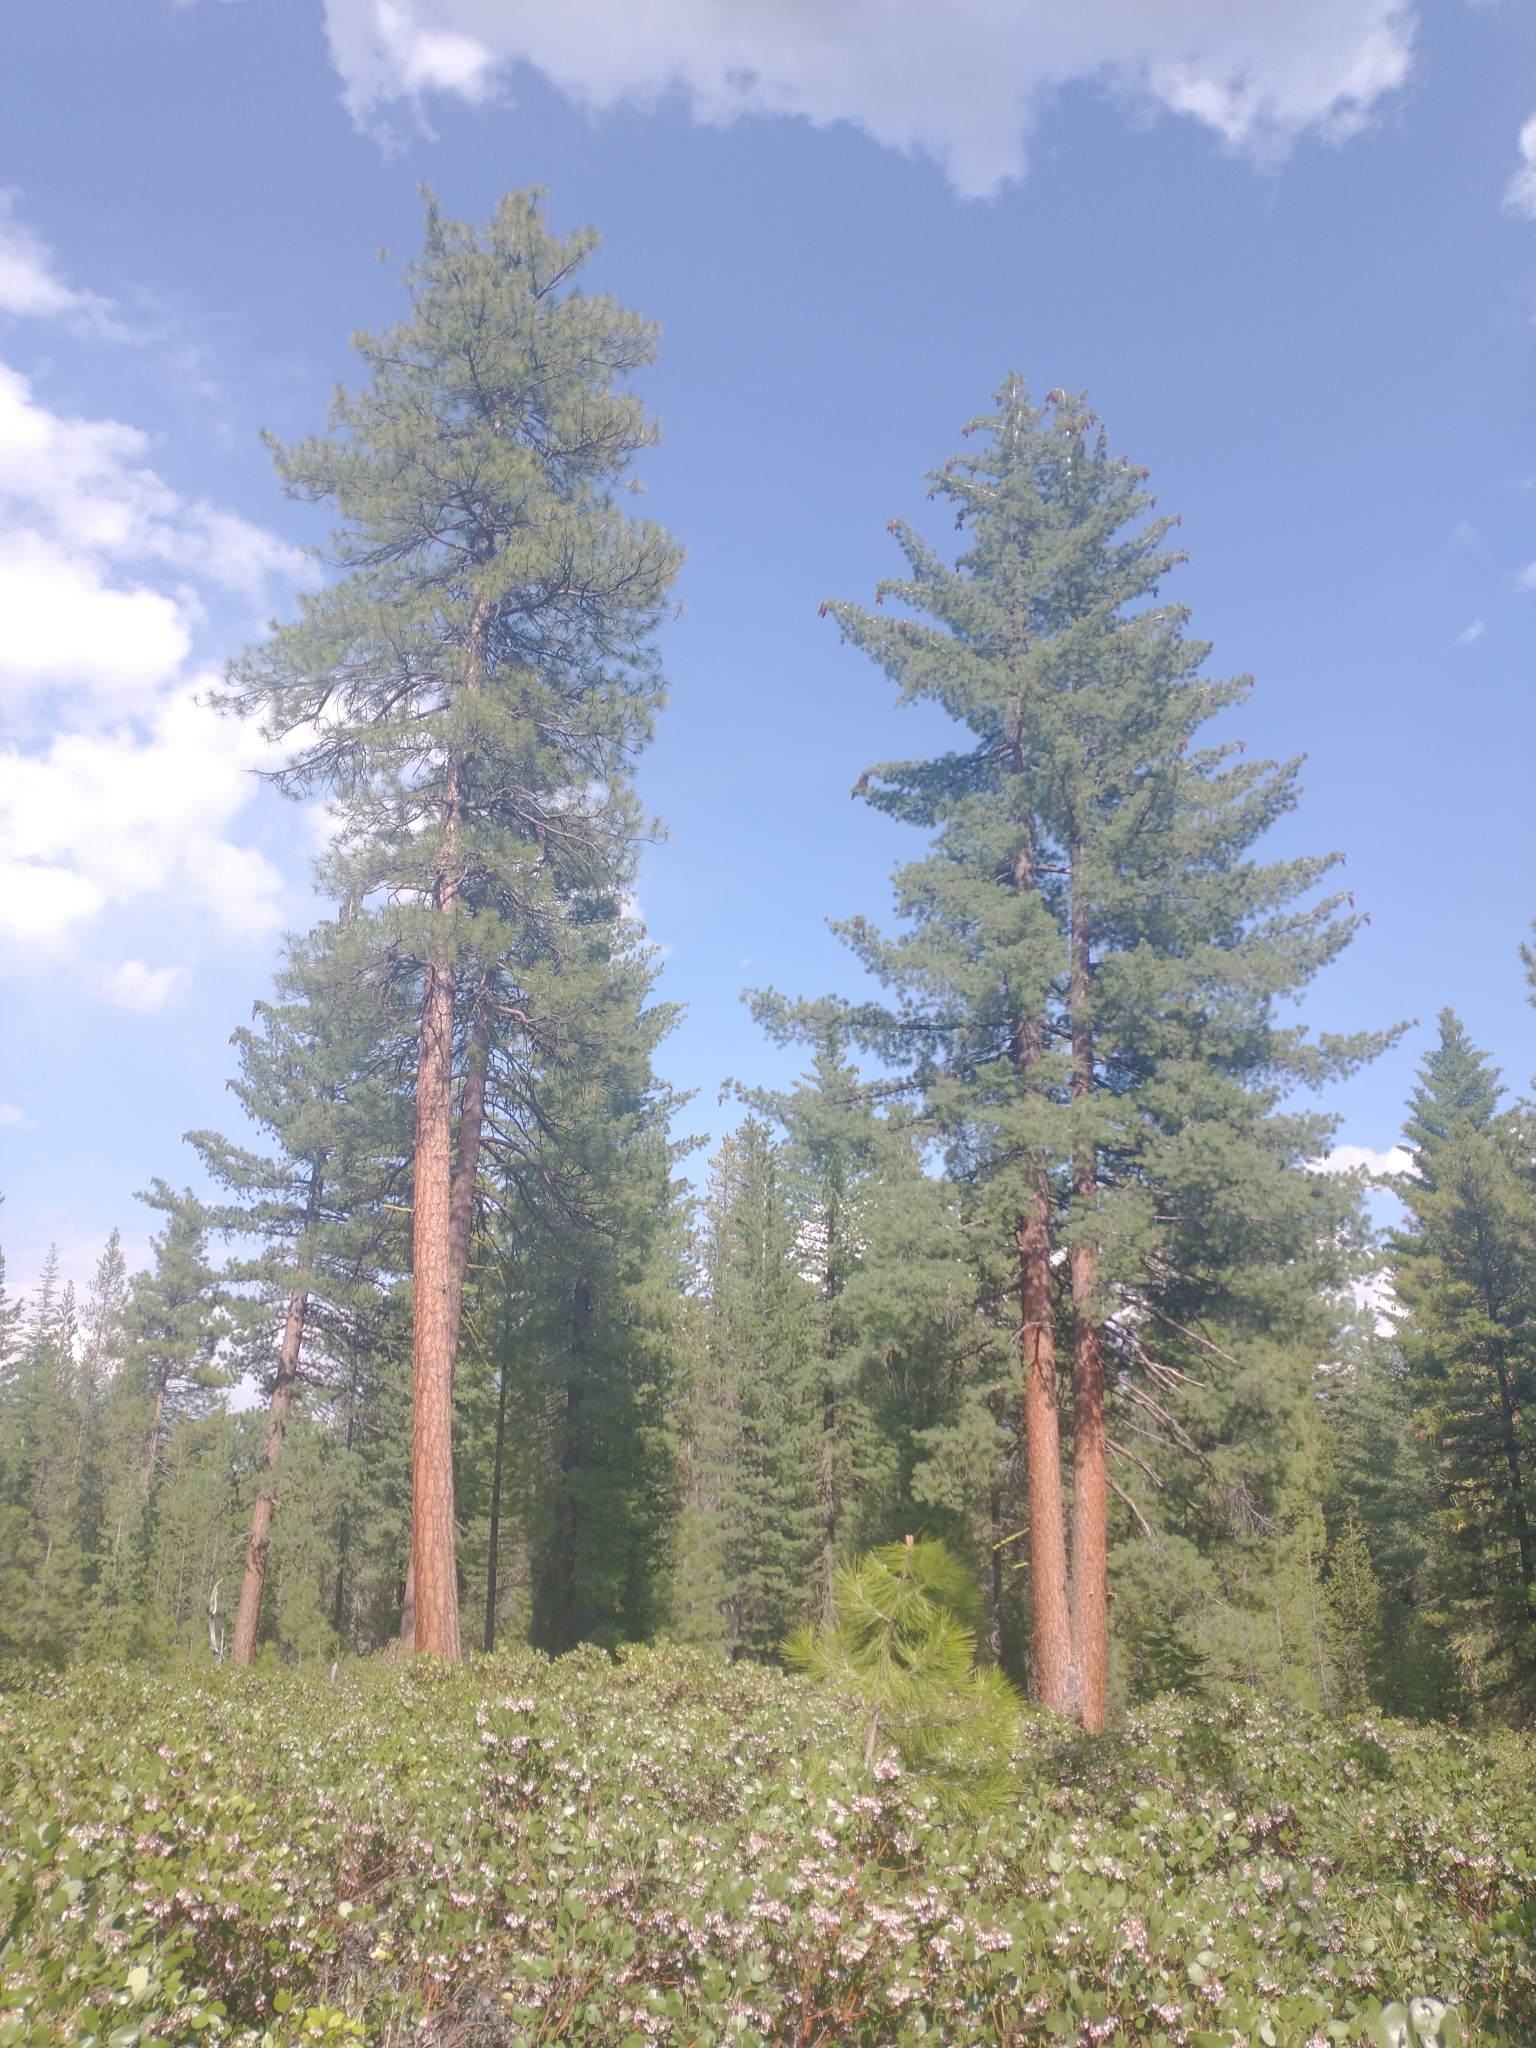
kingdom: Plantae
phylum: Tracheophyta
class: Pinopsida
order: Pinales
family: Pinaceae
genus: Pinus
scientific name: Pinus ponderosa
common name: Western yellow-pine
